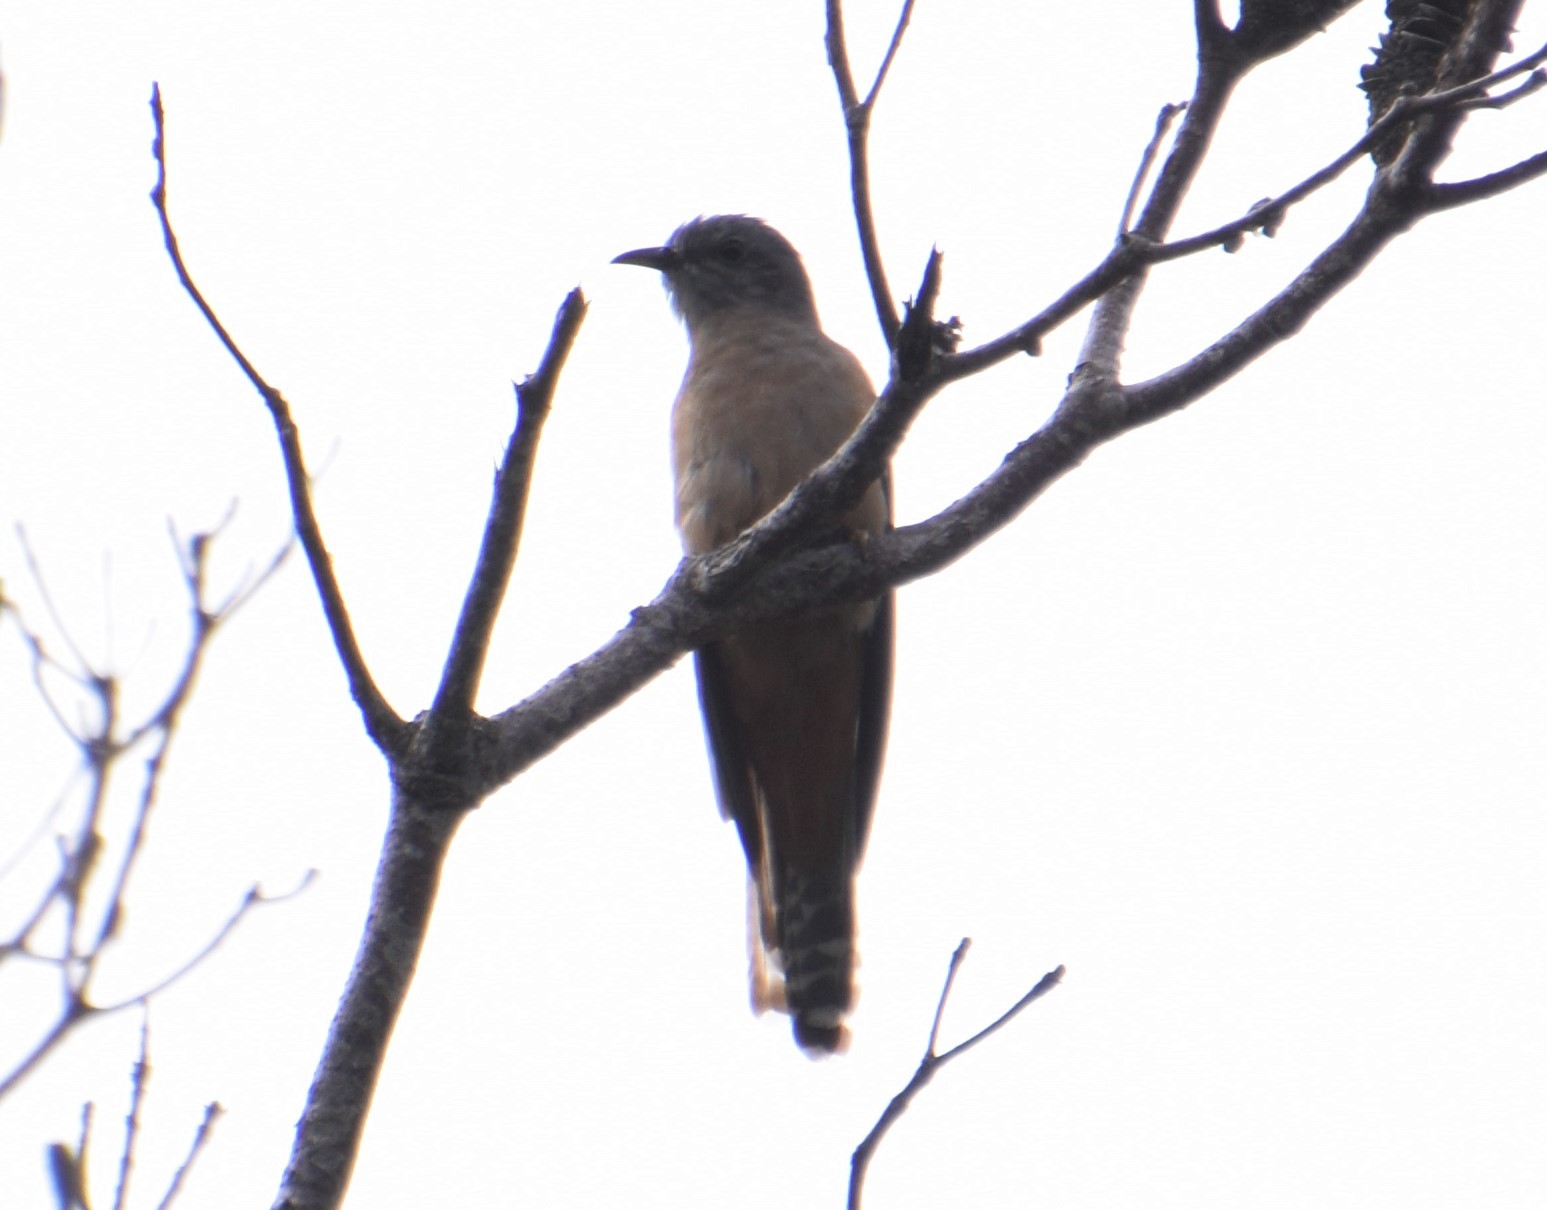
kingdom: Animalia
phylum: Chordata
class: Aves
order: Cuculiformes
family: Cuculidae
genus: Cacomantis
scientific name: Cacomantis variolosus
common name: Brush cuckoo
